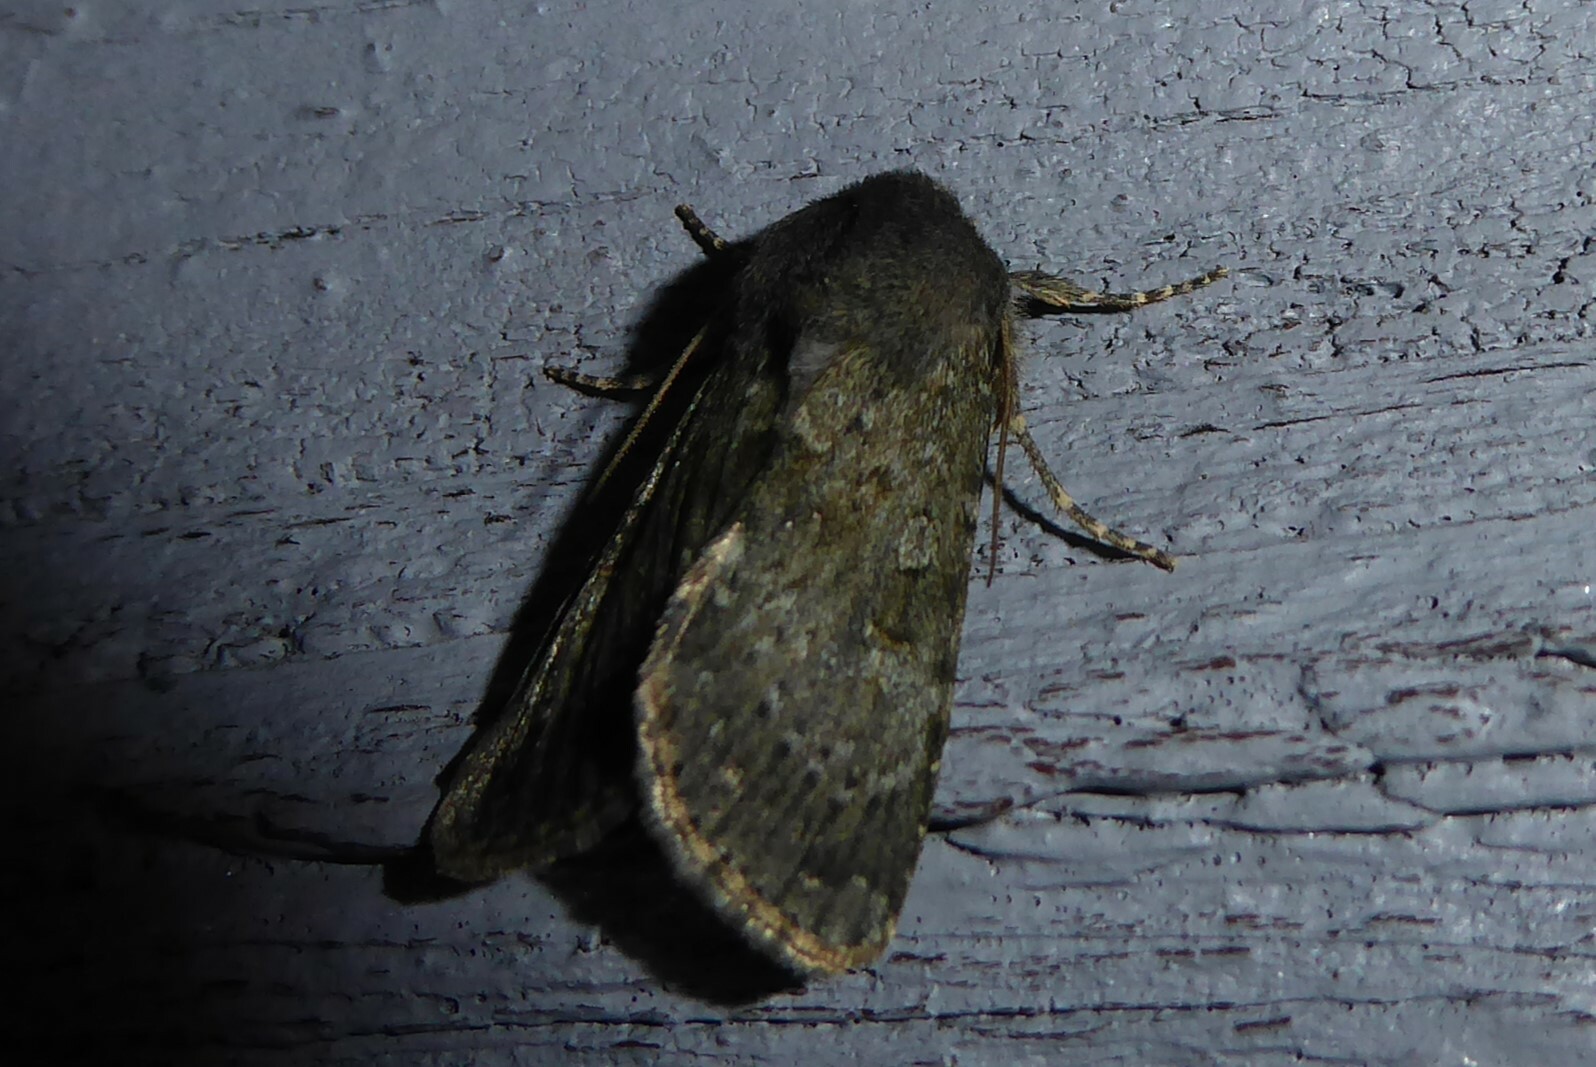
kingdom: Animalia
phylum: Arthropoda
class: Insecta
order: Lepidoptera
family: Noctuidae
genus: Ichneutica
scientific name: Ichneutica moderata
